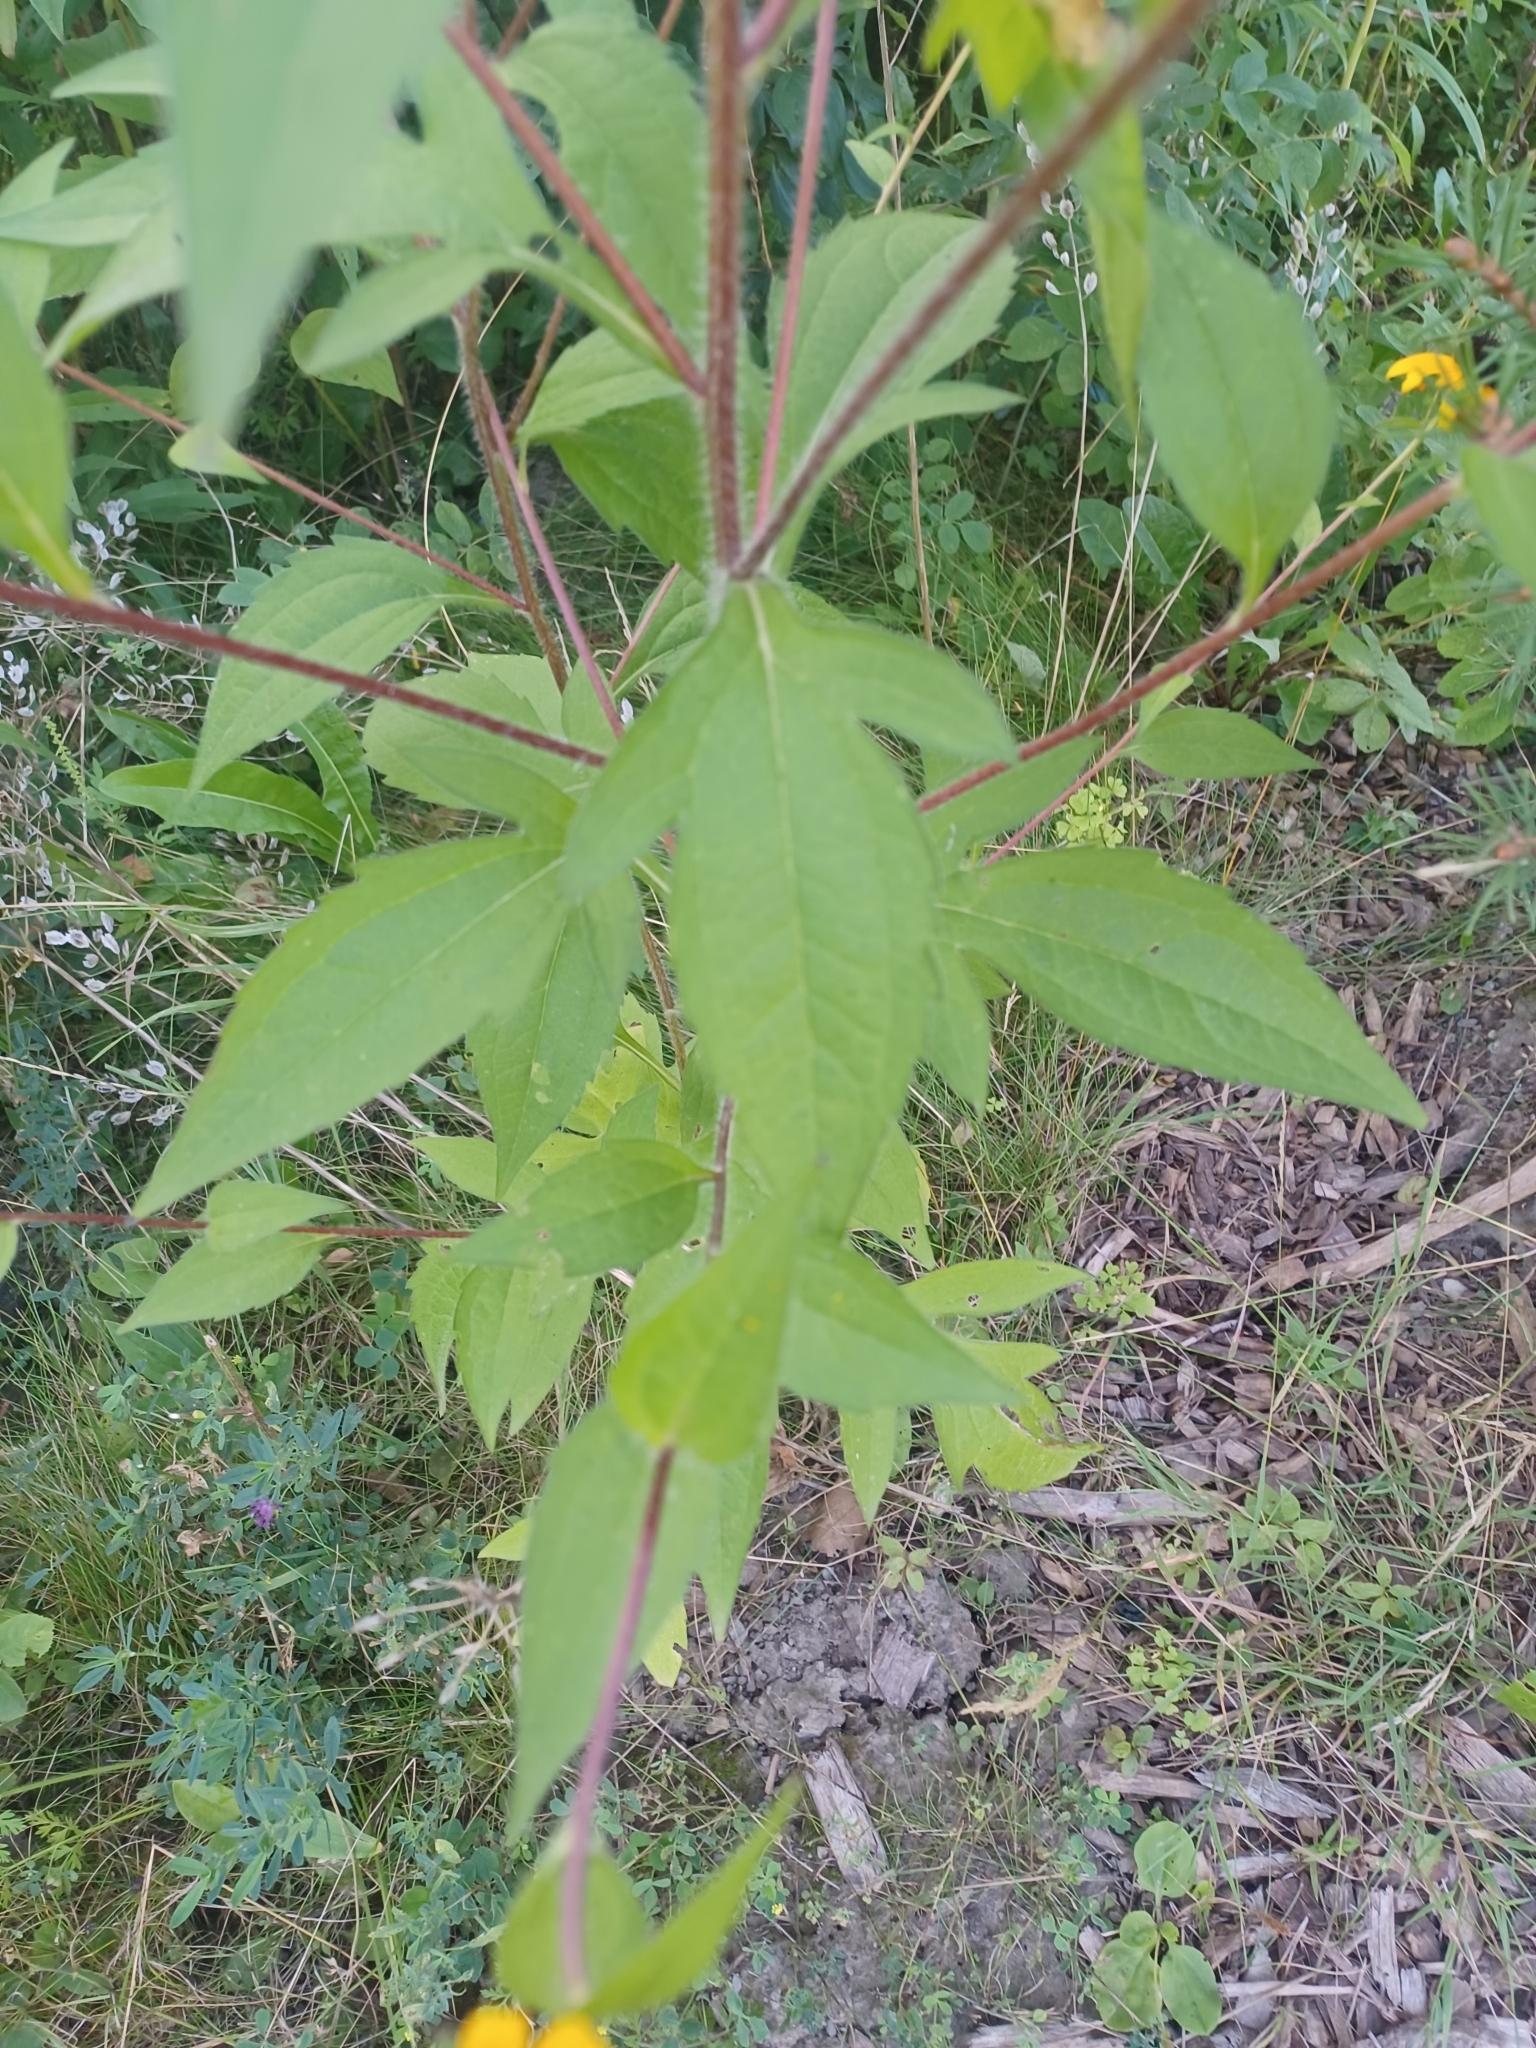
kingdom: Plantae
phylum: Tracheophyta
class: Magnoliopsida
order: Asterales
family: Asteraceae
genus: Rudbeckia
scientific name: Rudbeckia triloba
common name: Thin-leaved coneflower
